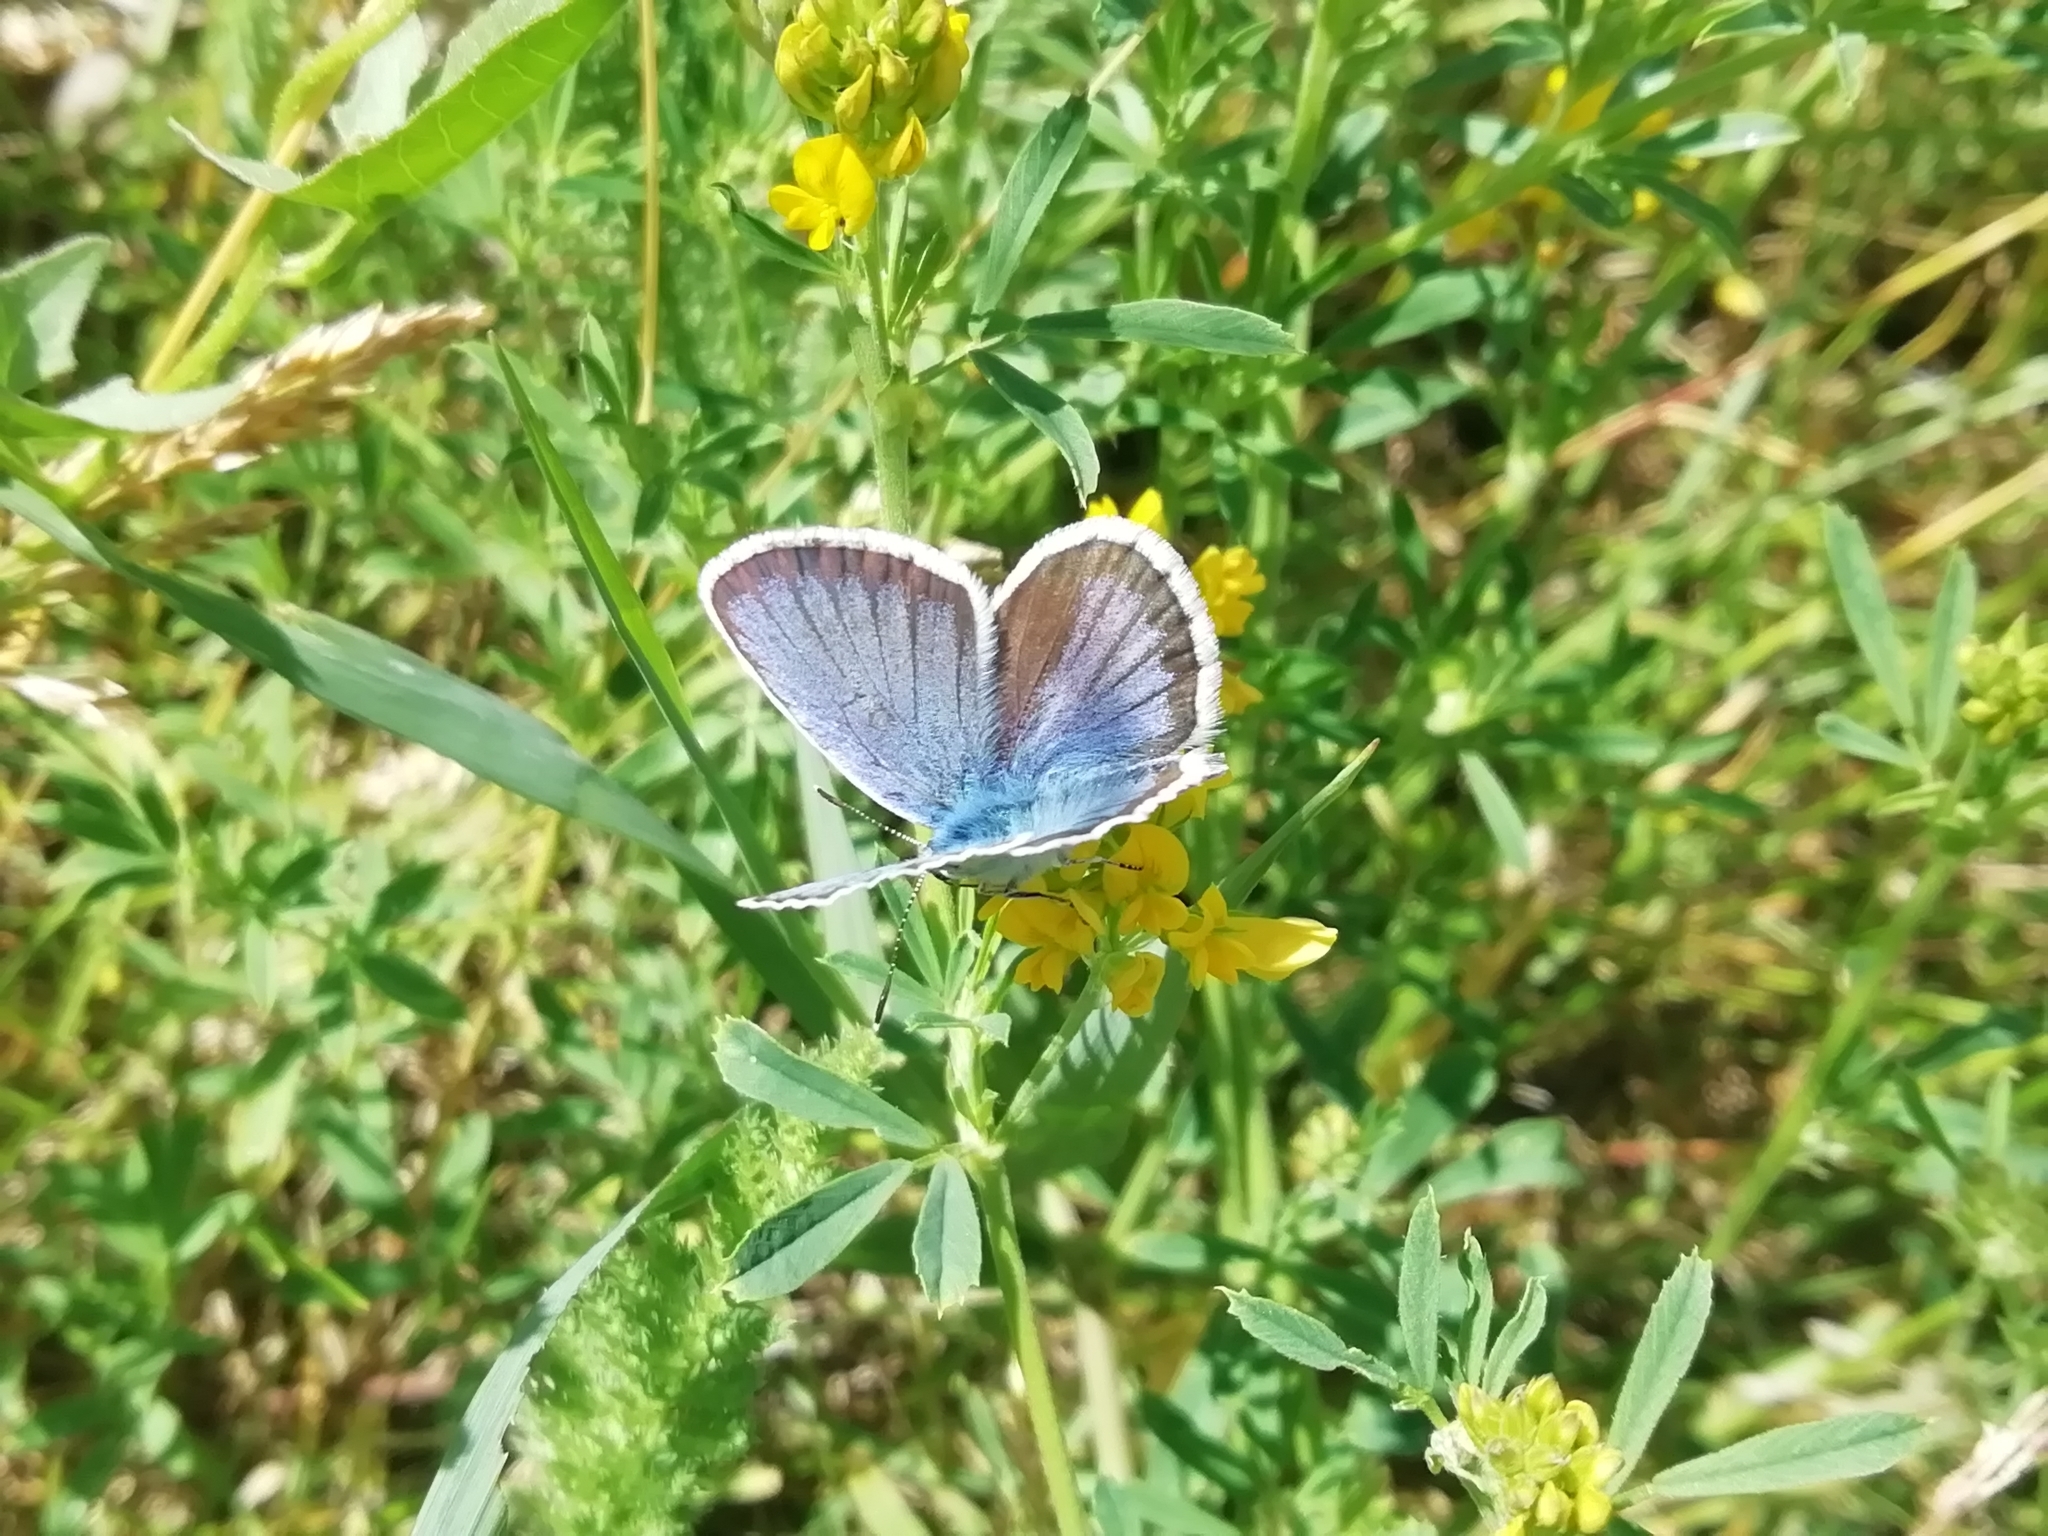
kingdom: Animalia
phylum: Arthropoda
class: Insecta
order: Lepidoptera
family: Lycaenidae
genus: Plebejus
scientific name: Plebejus argus
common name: Silver-studded blue
